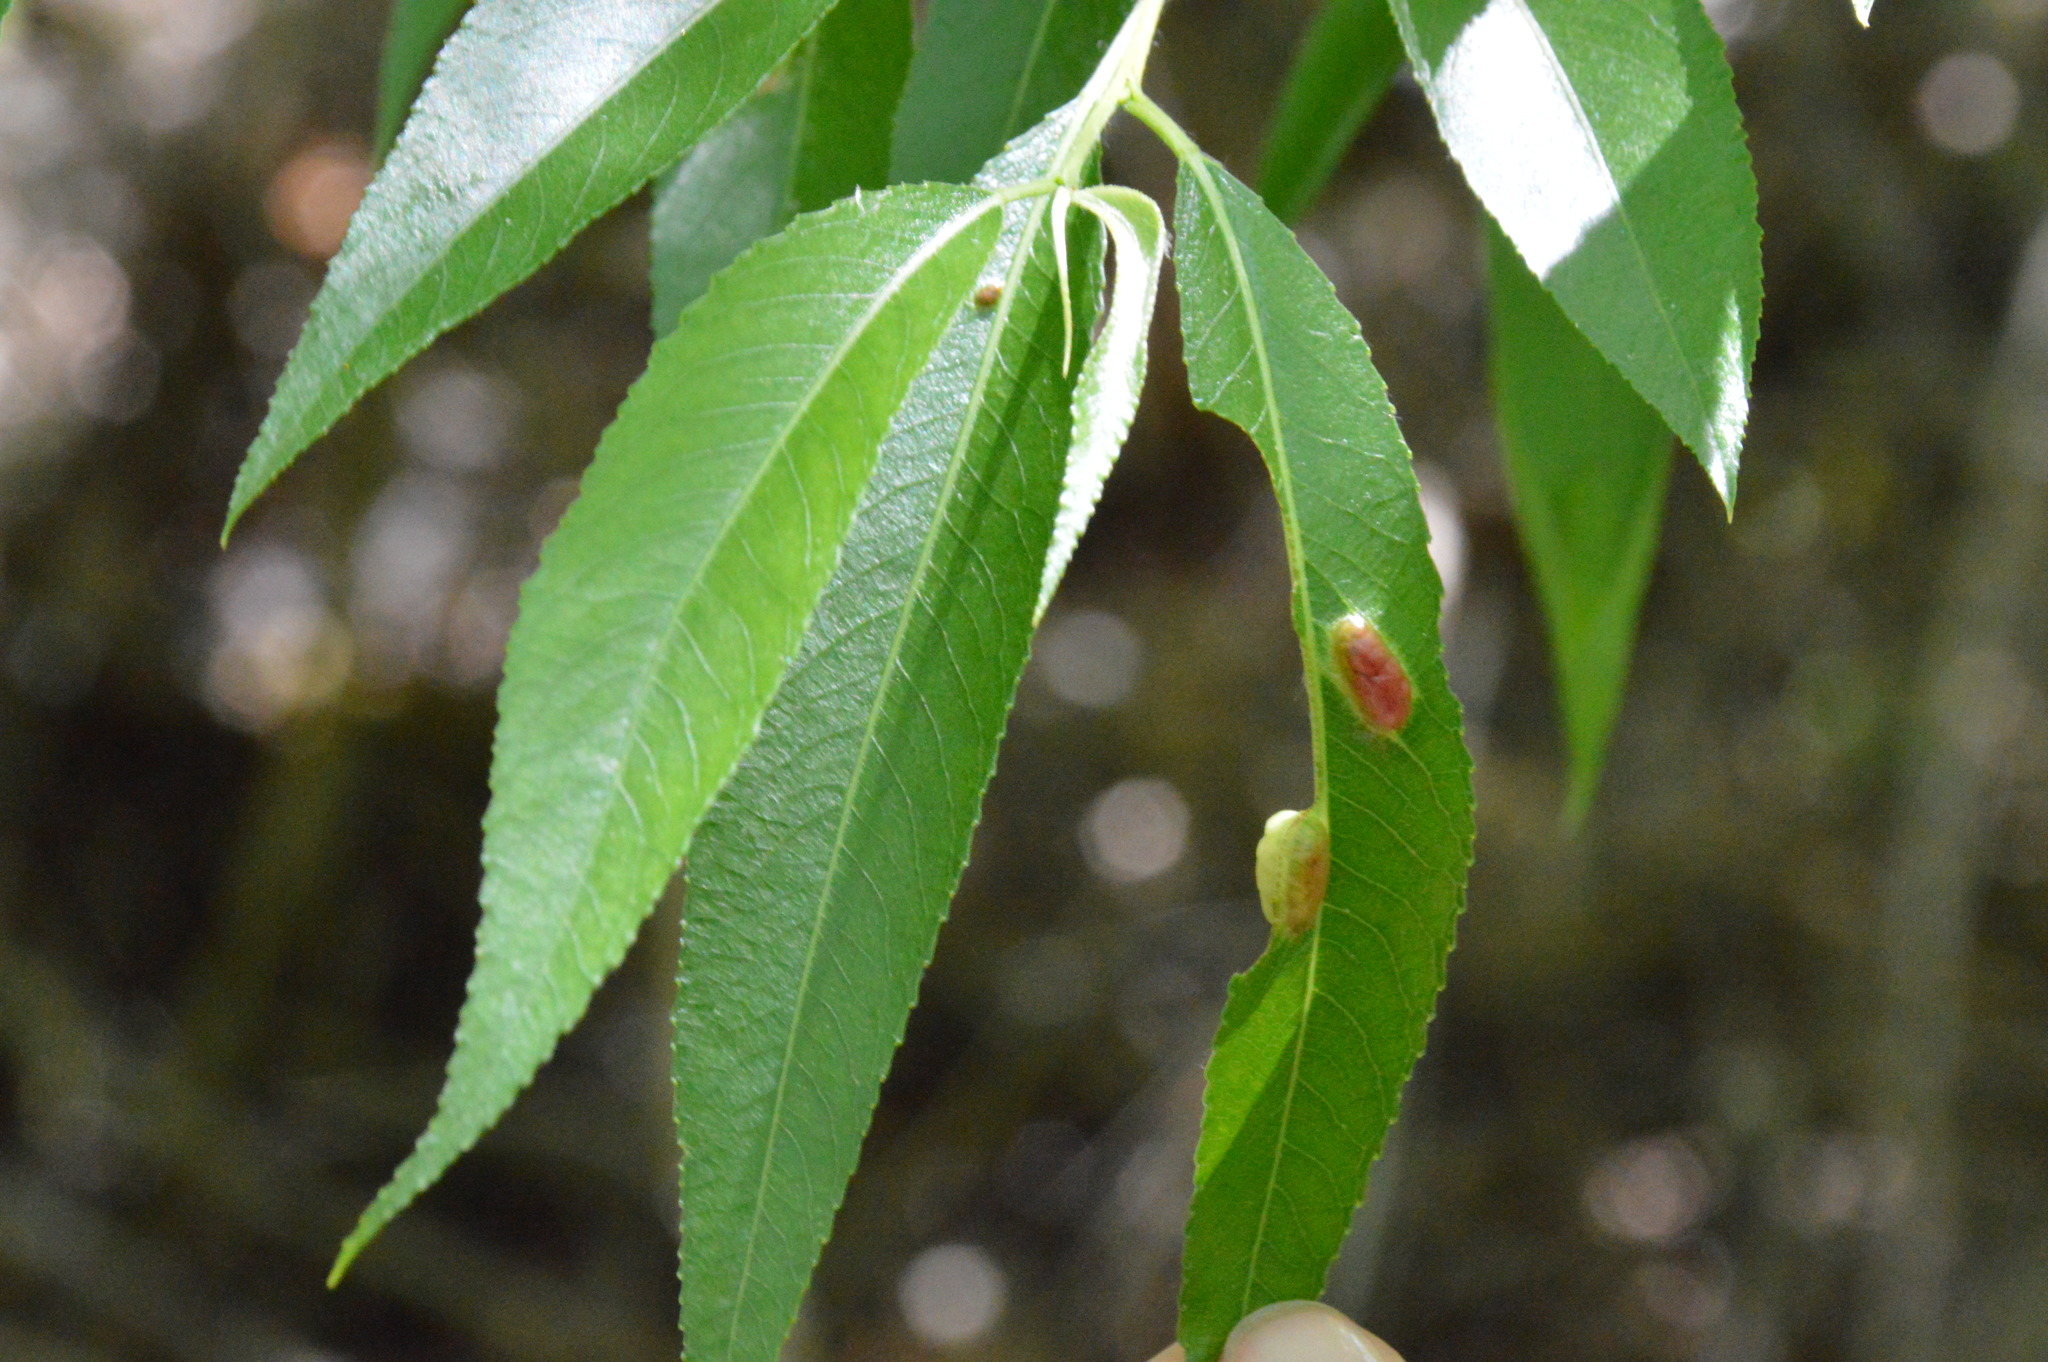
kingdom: Animalia
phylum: Arthropoda
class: Insecta
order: Hymenoptera
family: Tenthredinidae
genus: Pontania
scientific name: Pontania proxima
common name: Common sawfly
